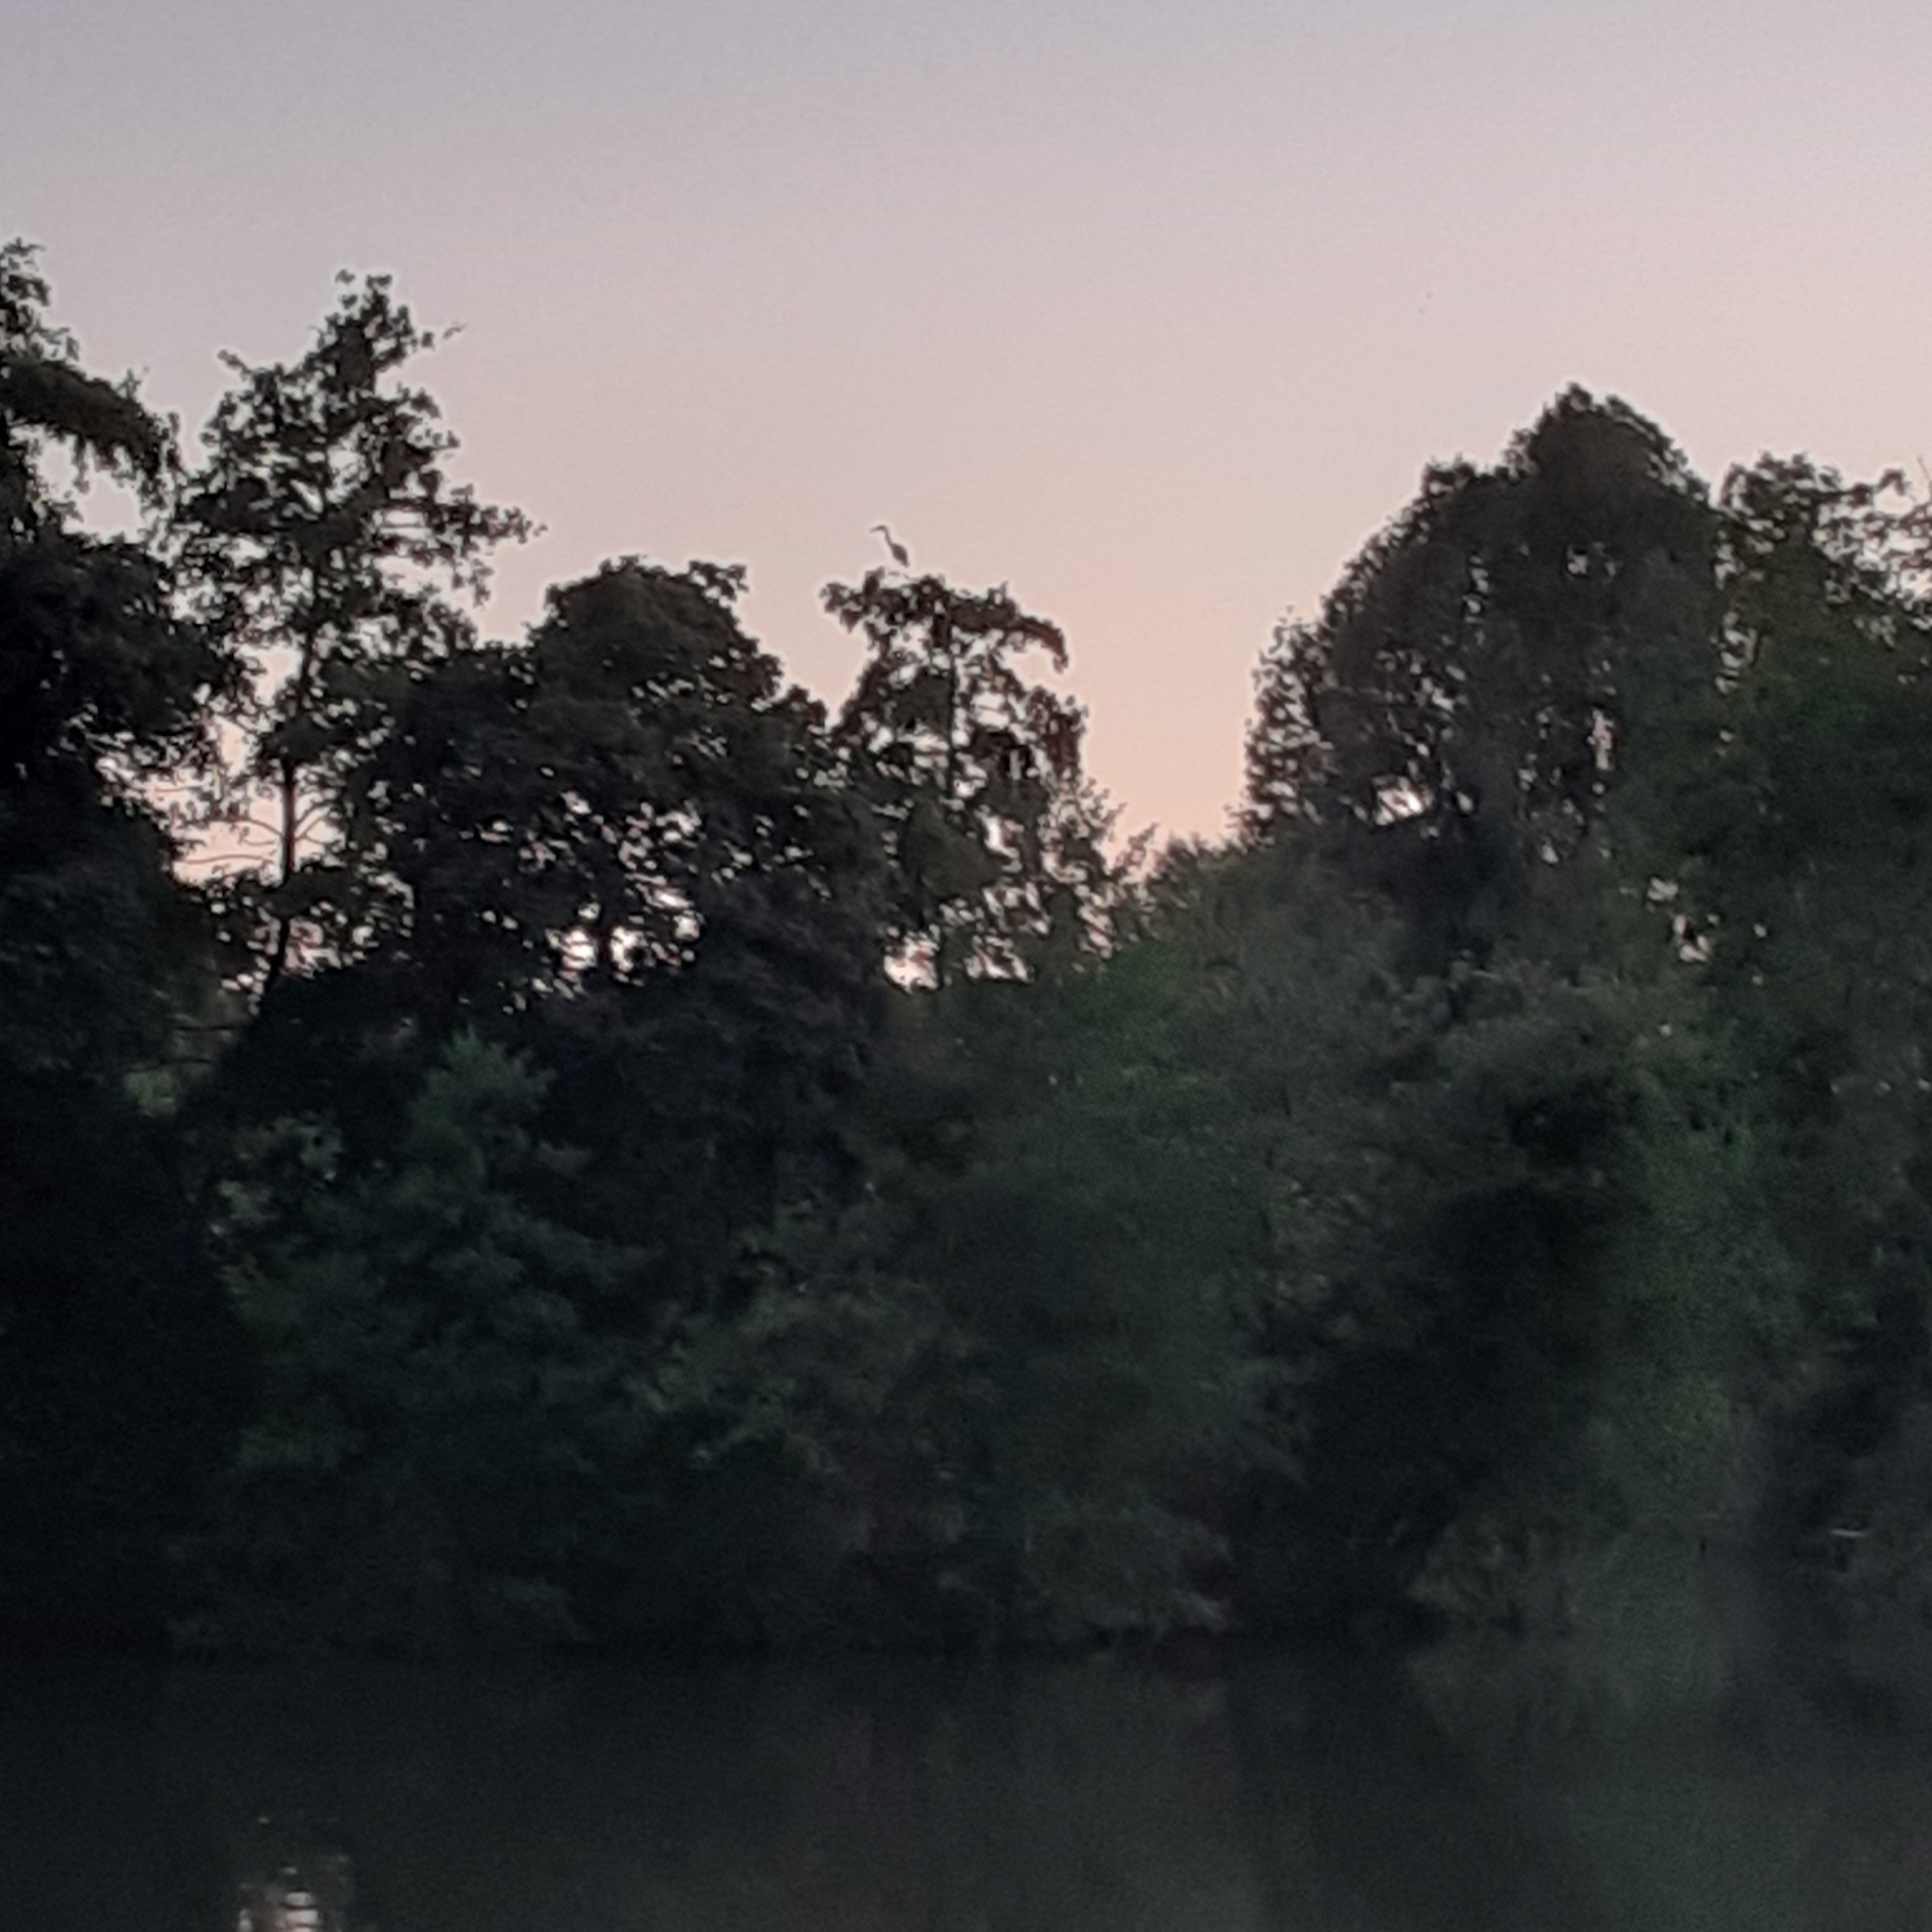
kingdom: Animalia
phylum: Chordata
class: Aves
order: Pelecaniformes
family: Ardeidae
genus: Ardea
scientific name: Ardea cinerea
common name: Grey heron
